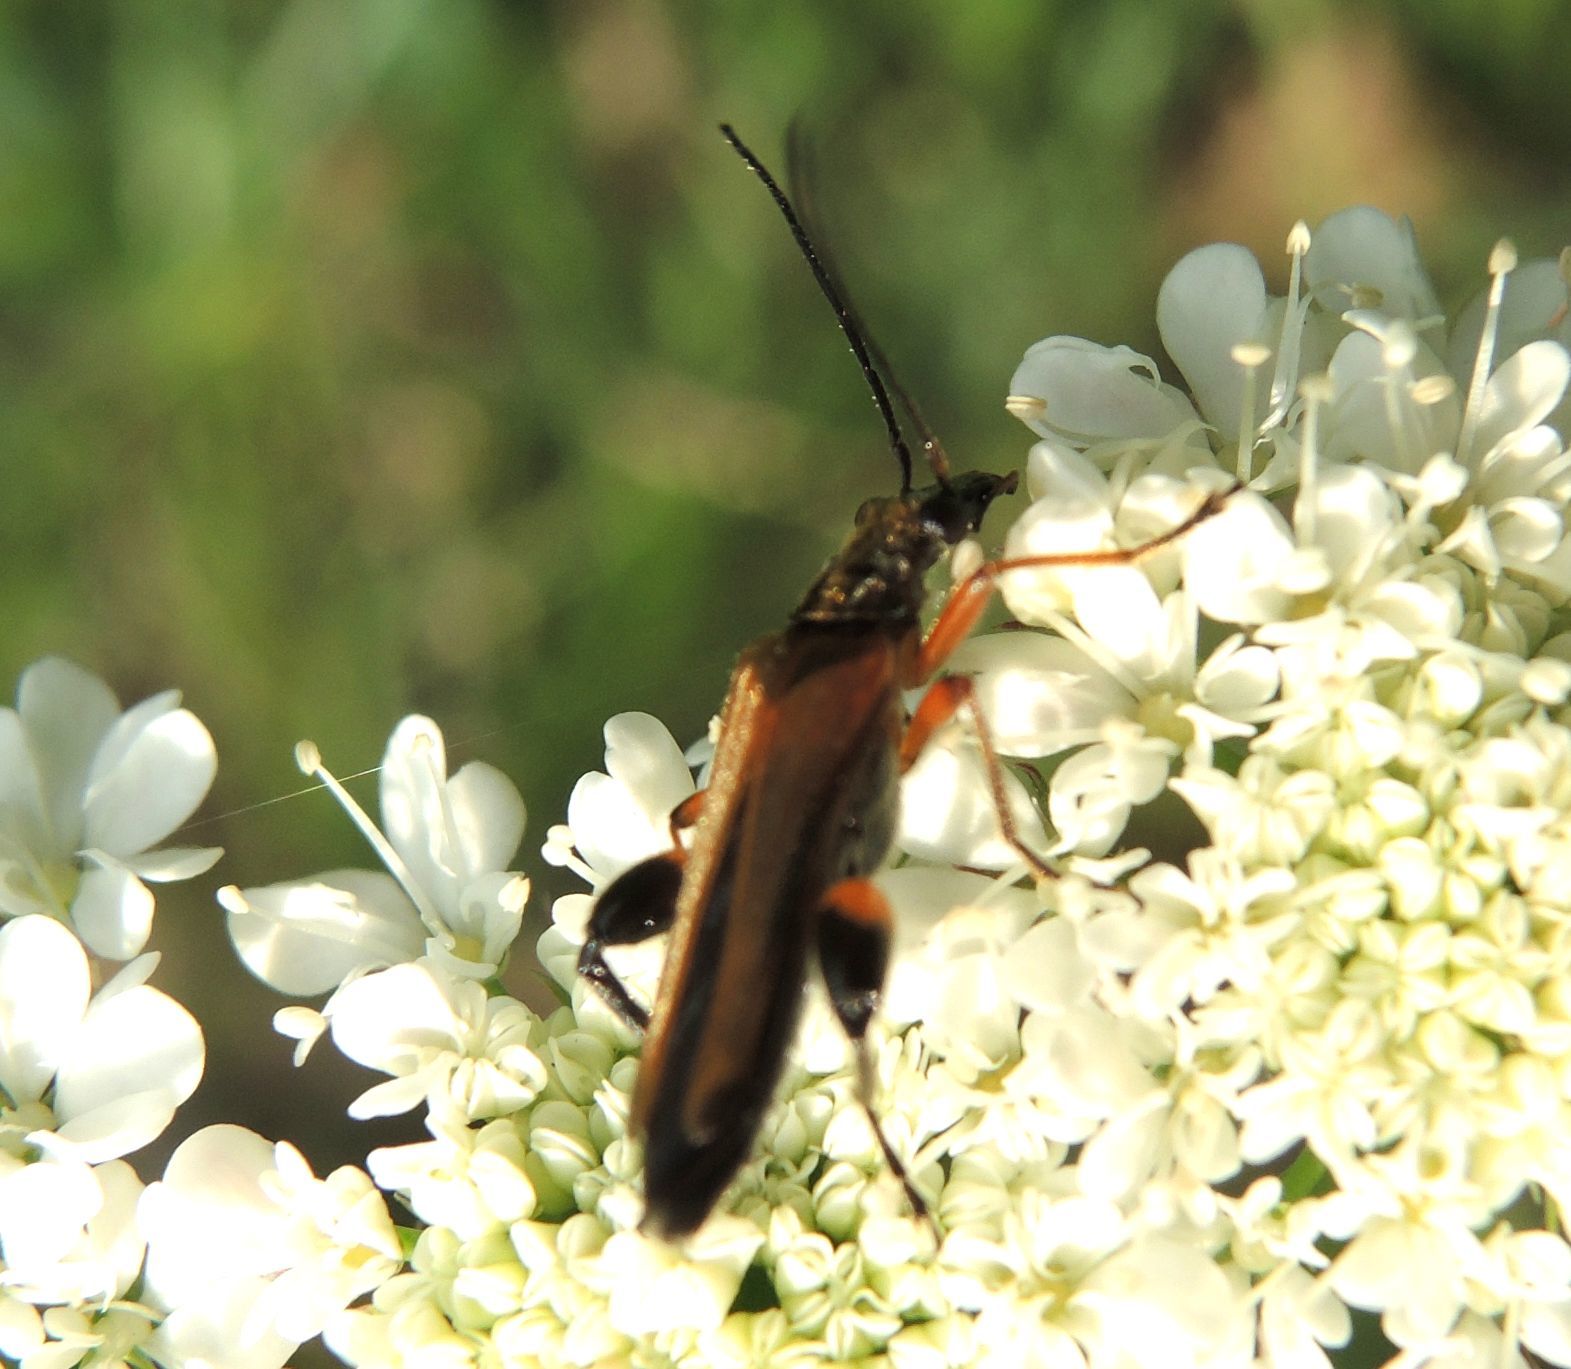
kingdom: Animalia
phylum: Arthropoda
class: Insecta
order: Coleoptera
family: Oedemeridae
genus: Oedemera
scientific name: Oedemera podagrariae
